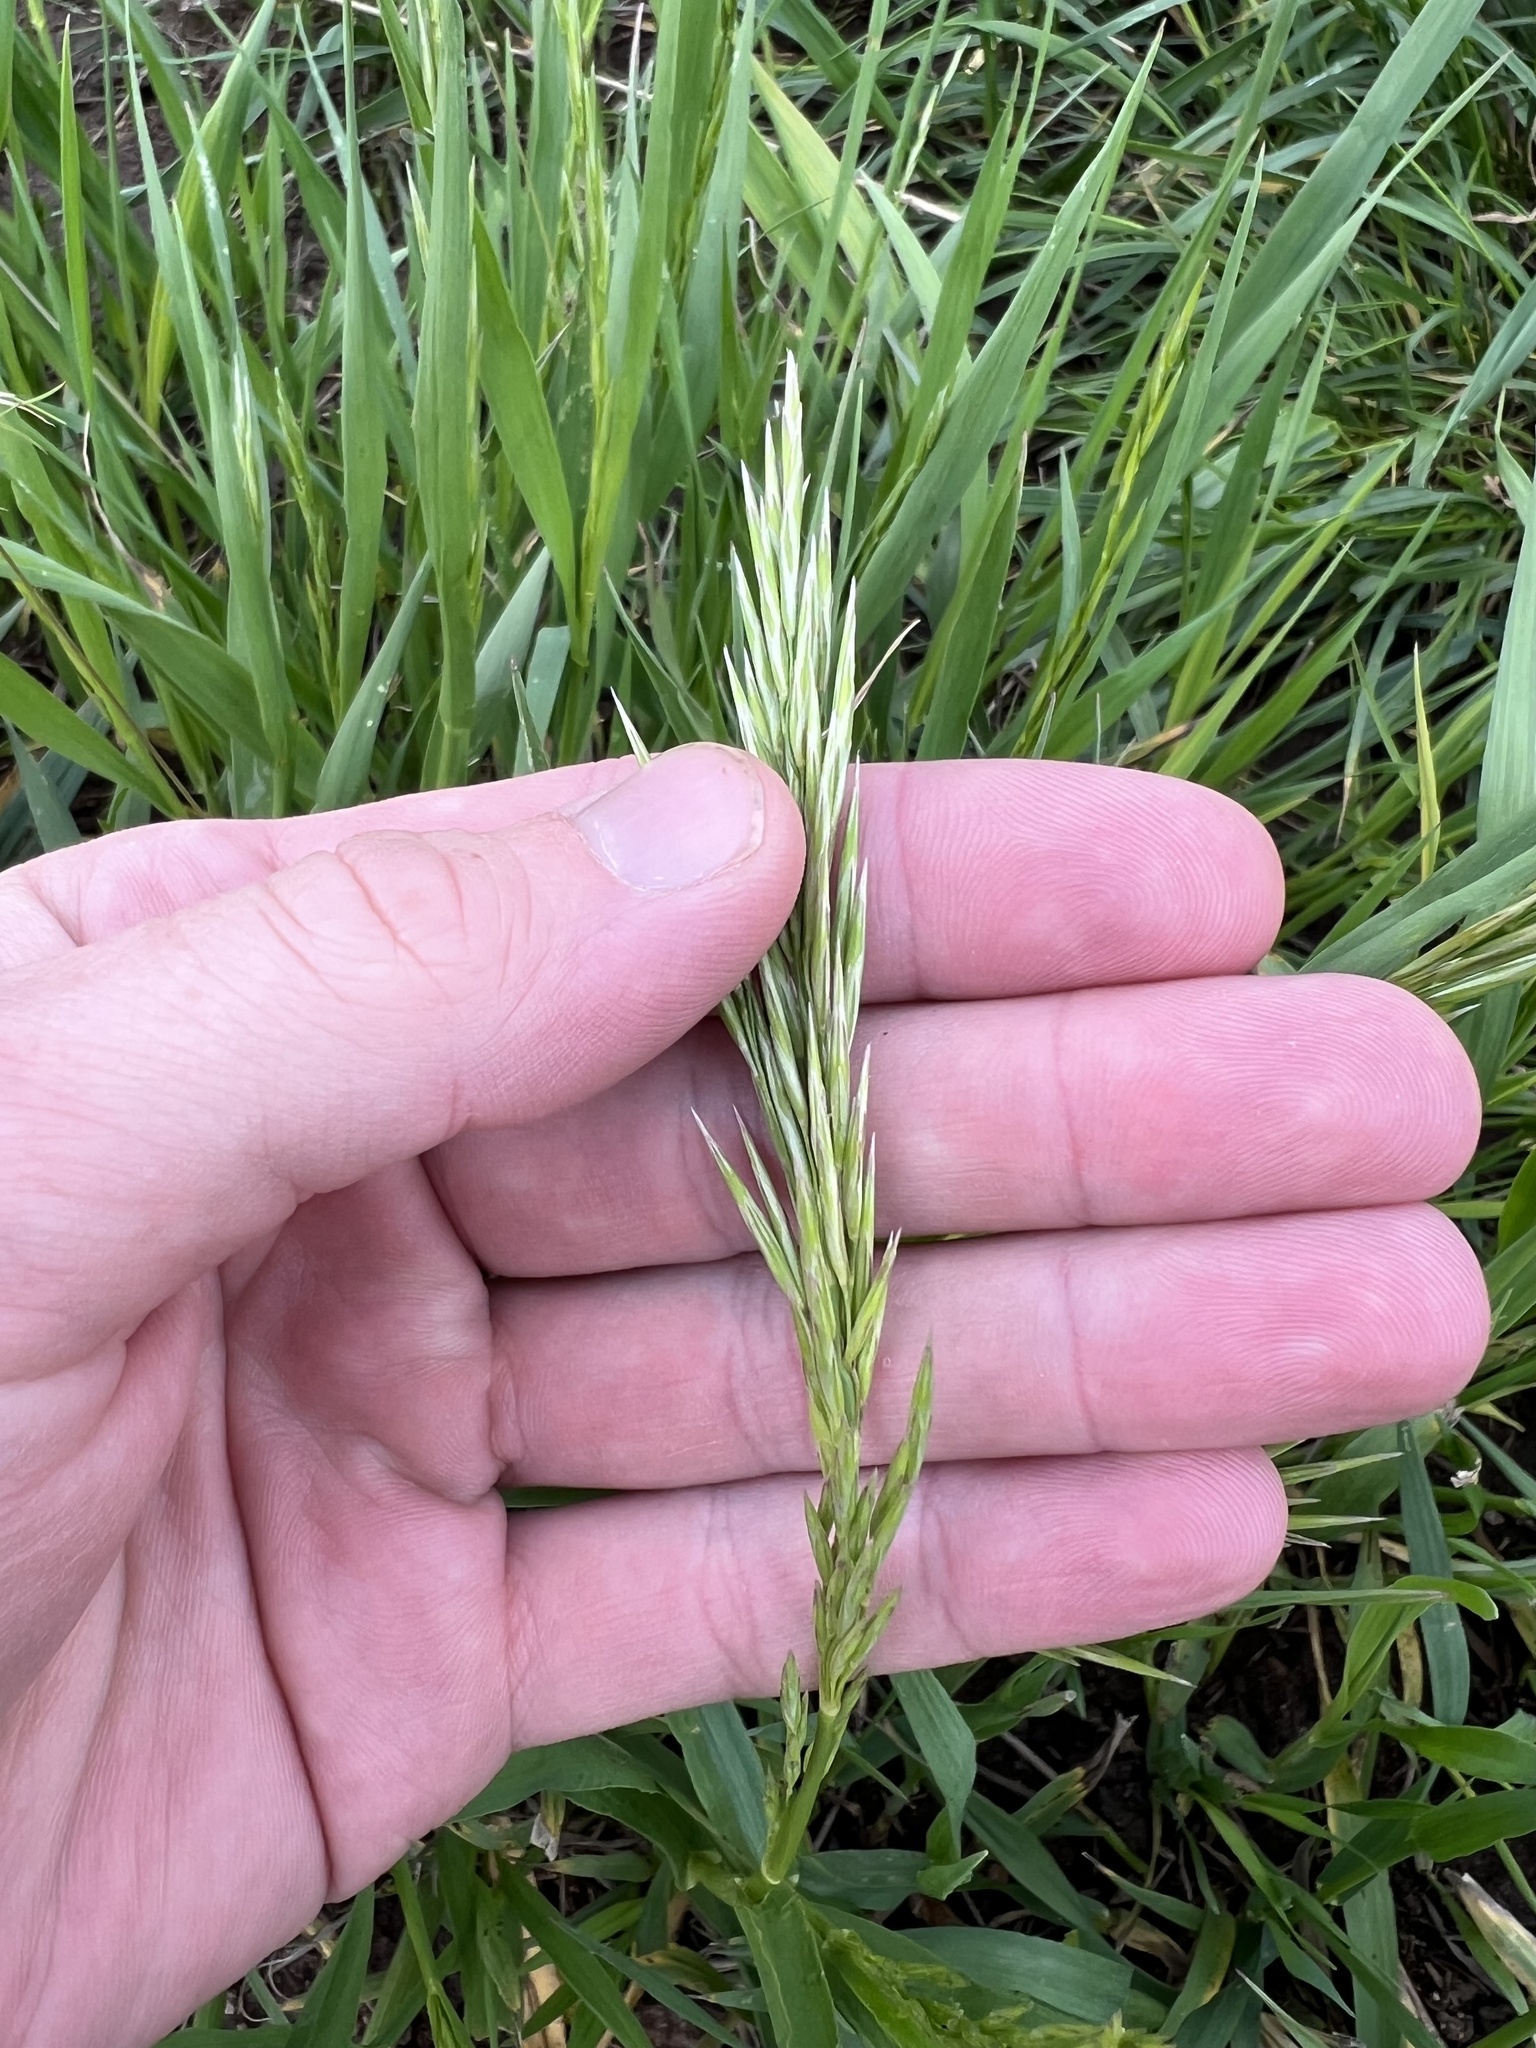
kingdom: Plantae
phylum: Tracheophyta
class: Liliopsida
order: Poales
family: Poaceae
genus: Bromus
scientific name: Bromus inermis
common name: Smooth brome
